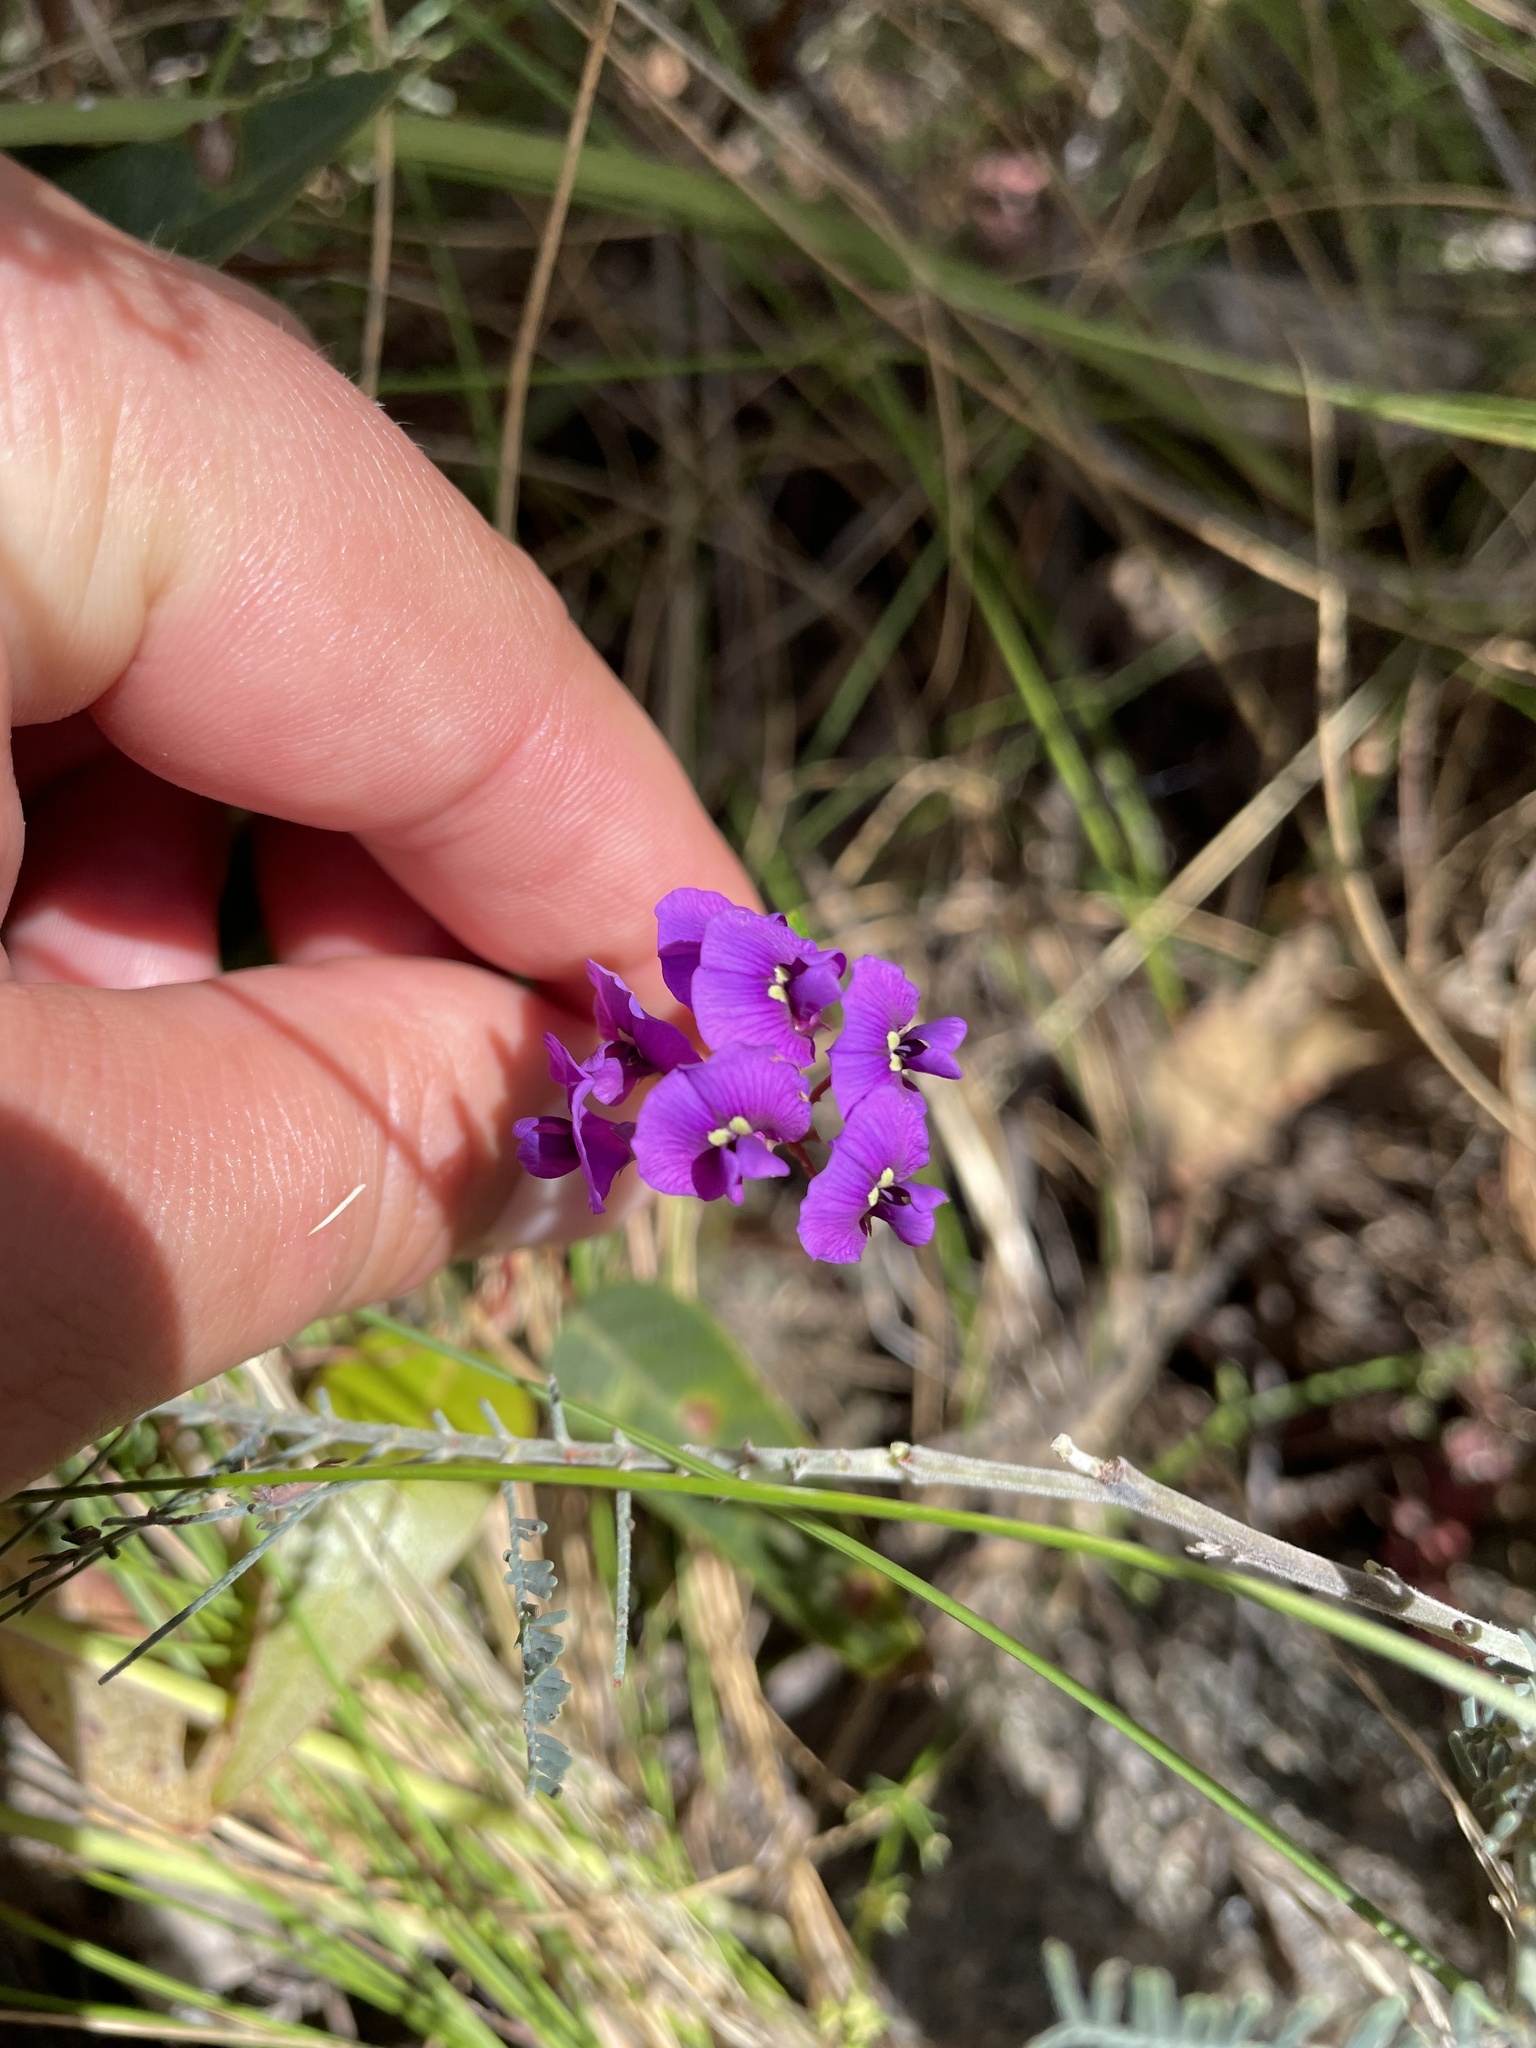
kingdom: Plantae
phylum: Tracheophyta
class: Magnoliopsida
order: Fabales
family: Fabaceae
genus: Hardenbergia
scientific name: Hardenbergia violacea
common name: Coral-pea
